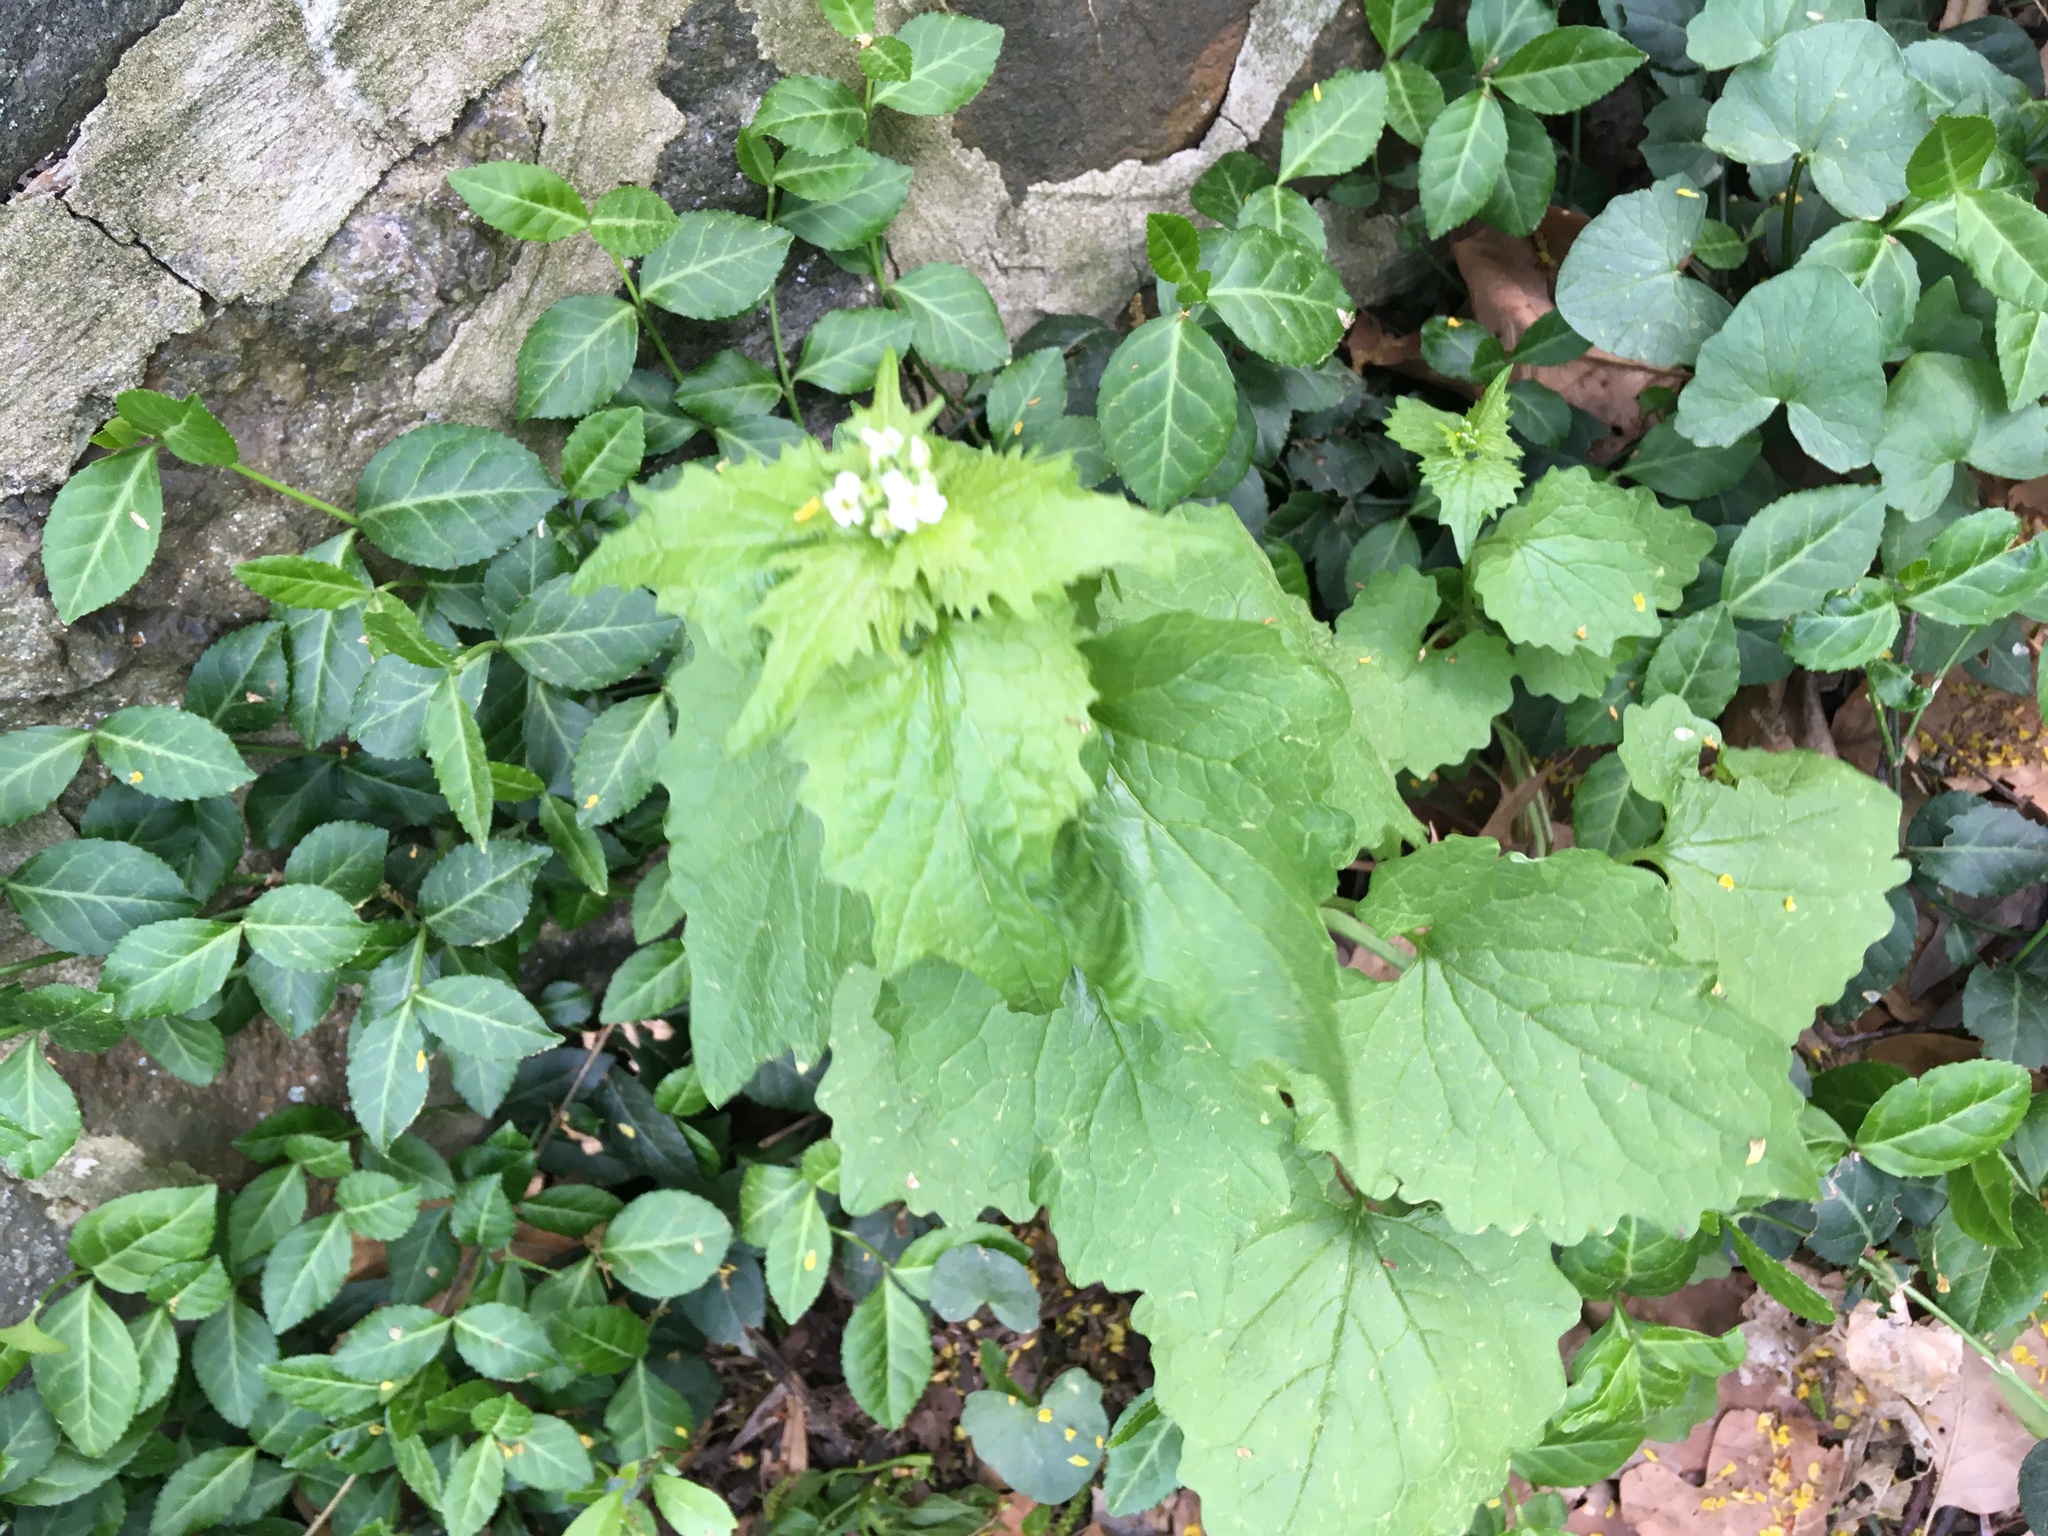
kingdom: Plantae
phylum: Tracheophyta
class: Magnoliopsida
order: Brassicales
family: Brassicaceae
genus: Alliaria
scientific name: Alliaria petiolata
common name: Garlic mustard
